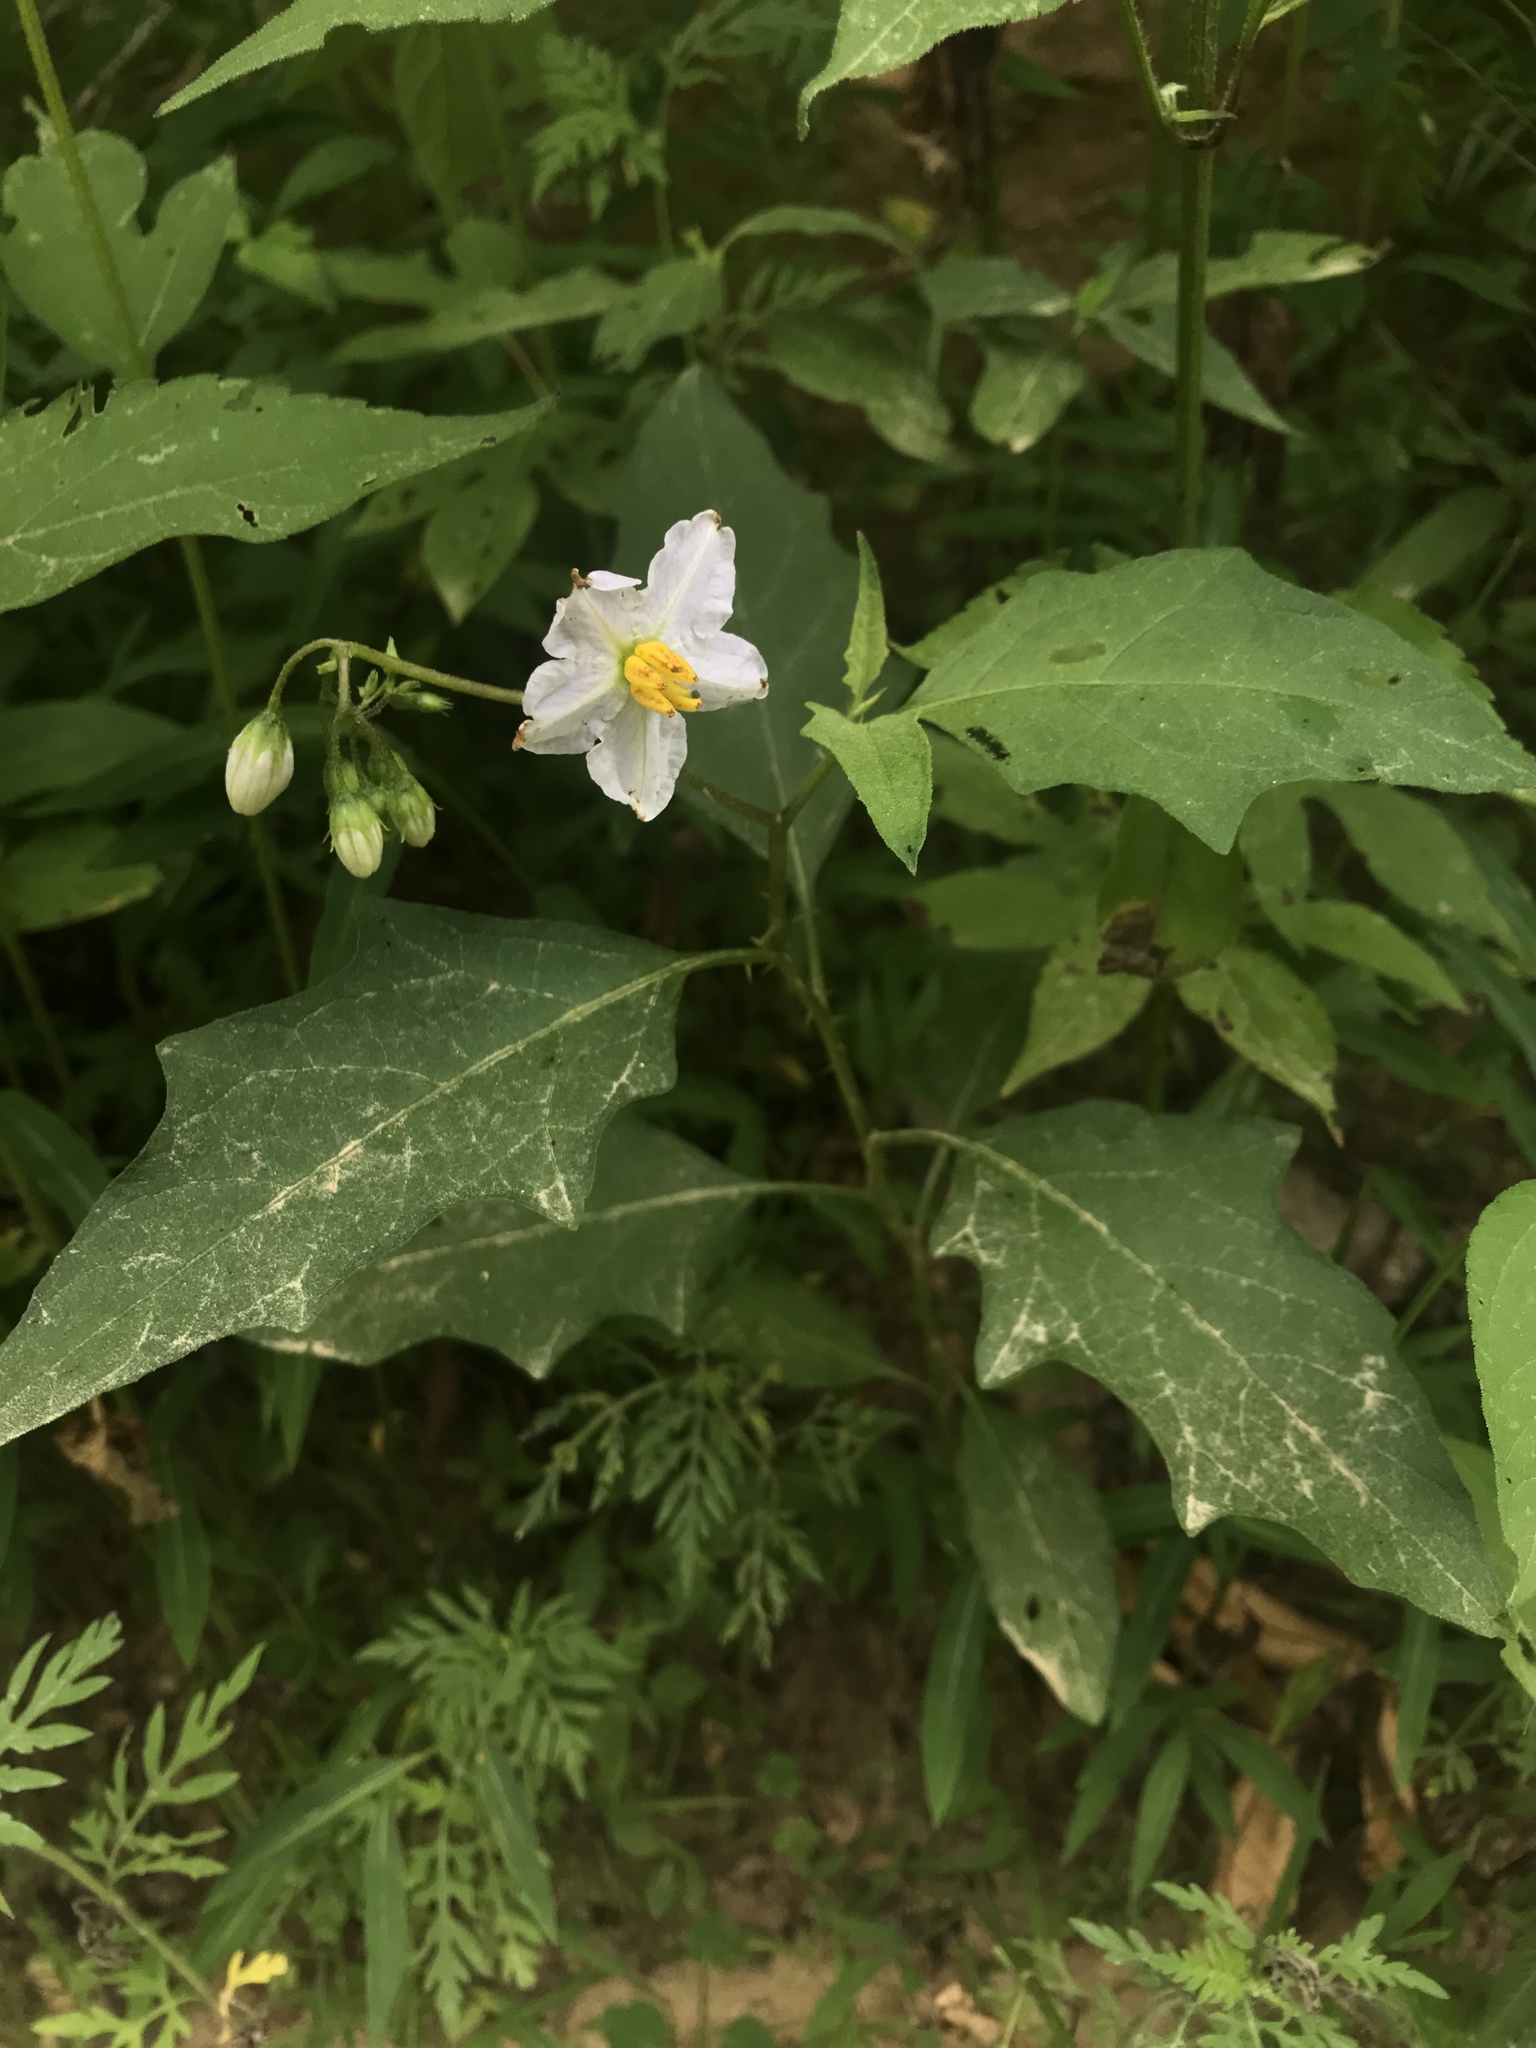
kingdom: Plantae
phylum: Tracheophyta
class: Magnoliopsida
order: Solanales
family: Solanaceae
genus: Solanum
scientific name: Solanum carolinense
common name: Horse-nettle
